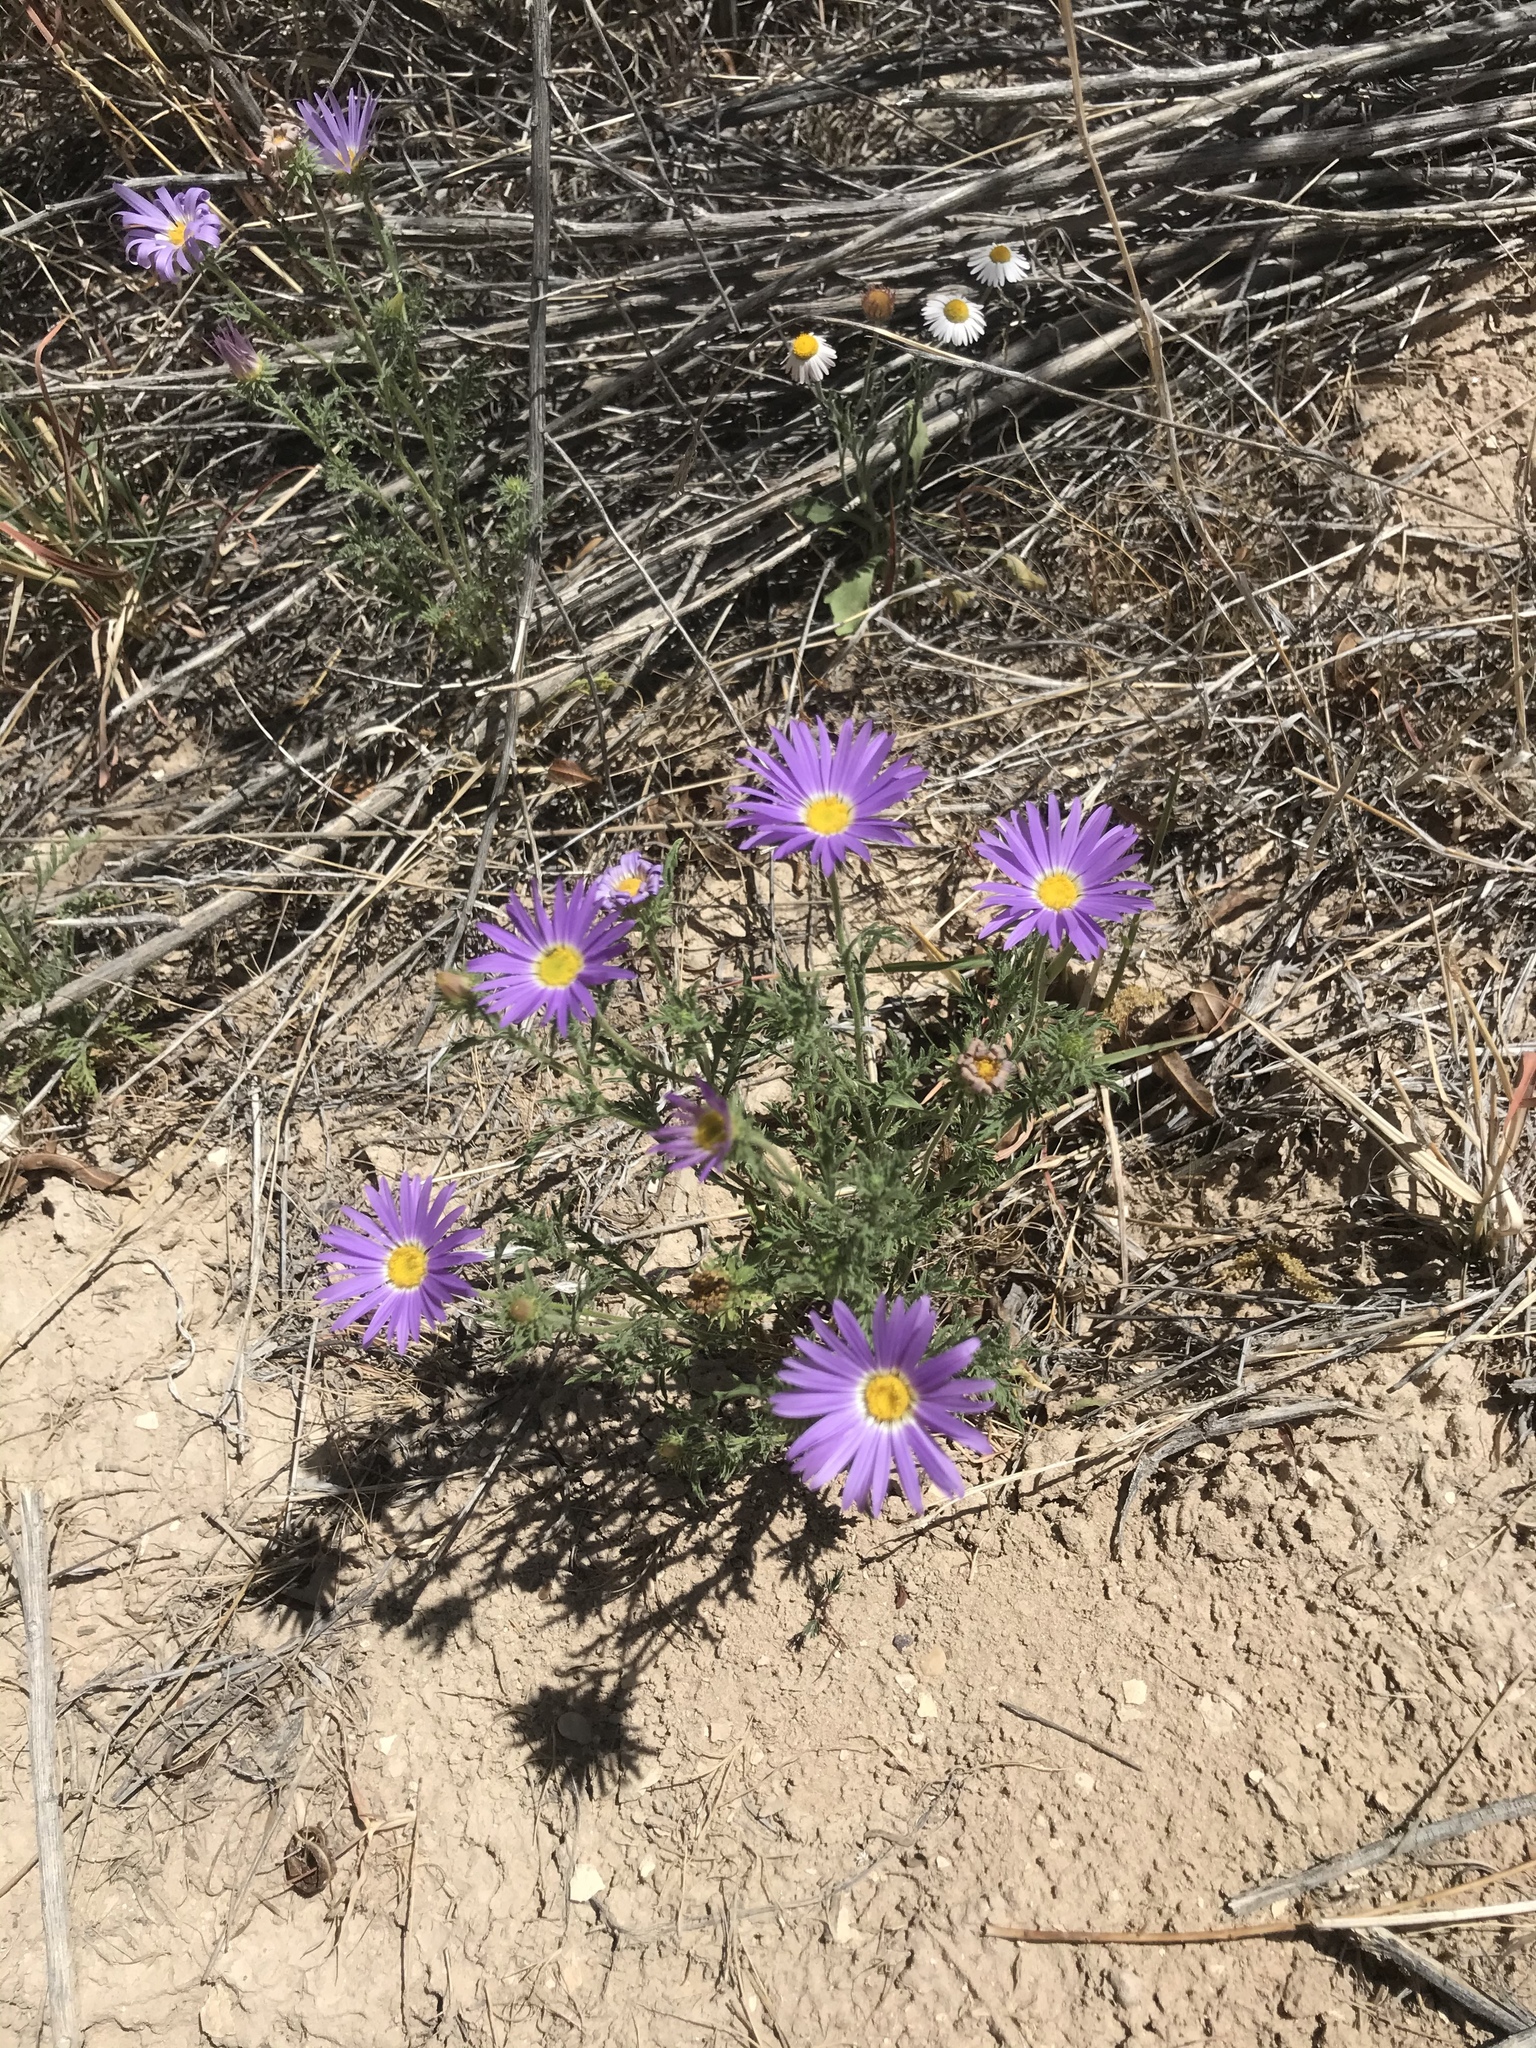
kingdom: Plantae
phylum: Tracheophyta
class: Magnoliopsida
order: Asterales
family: Asteraceae
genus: Machaeranthera
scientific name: Machaeranthera tanacetifolia
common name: Tansy-aster
